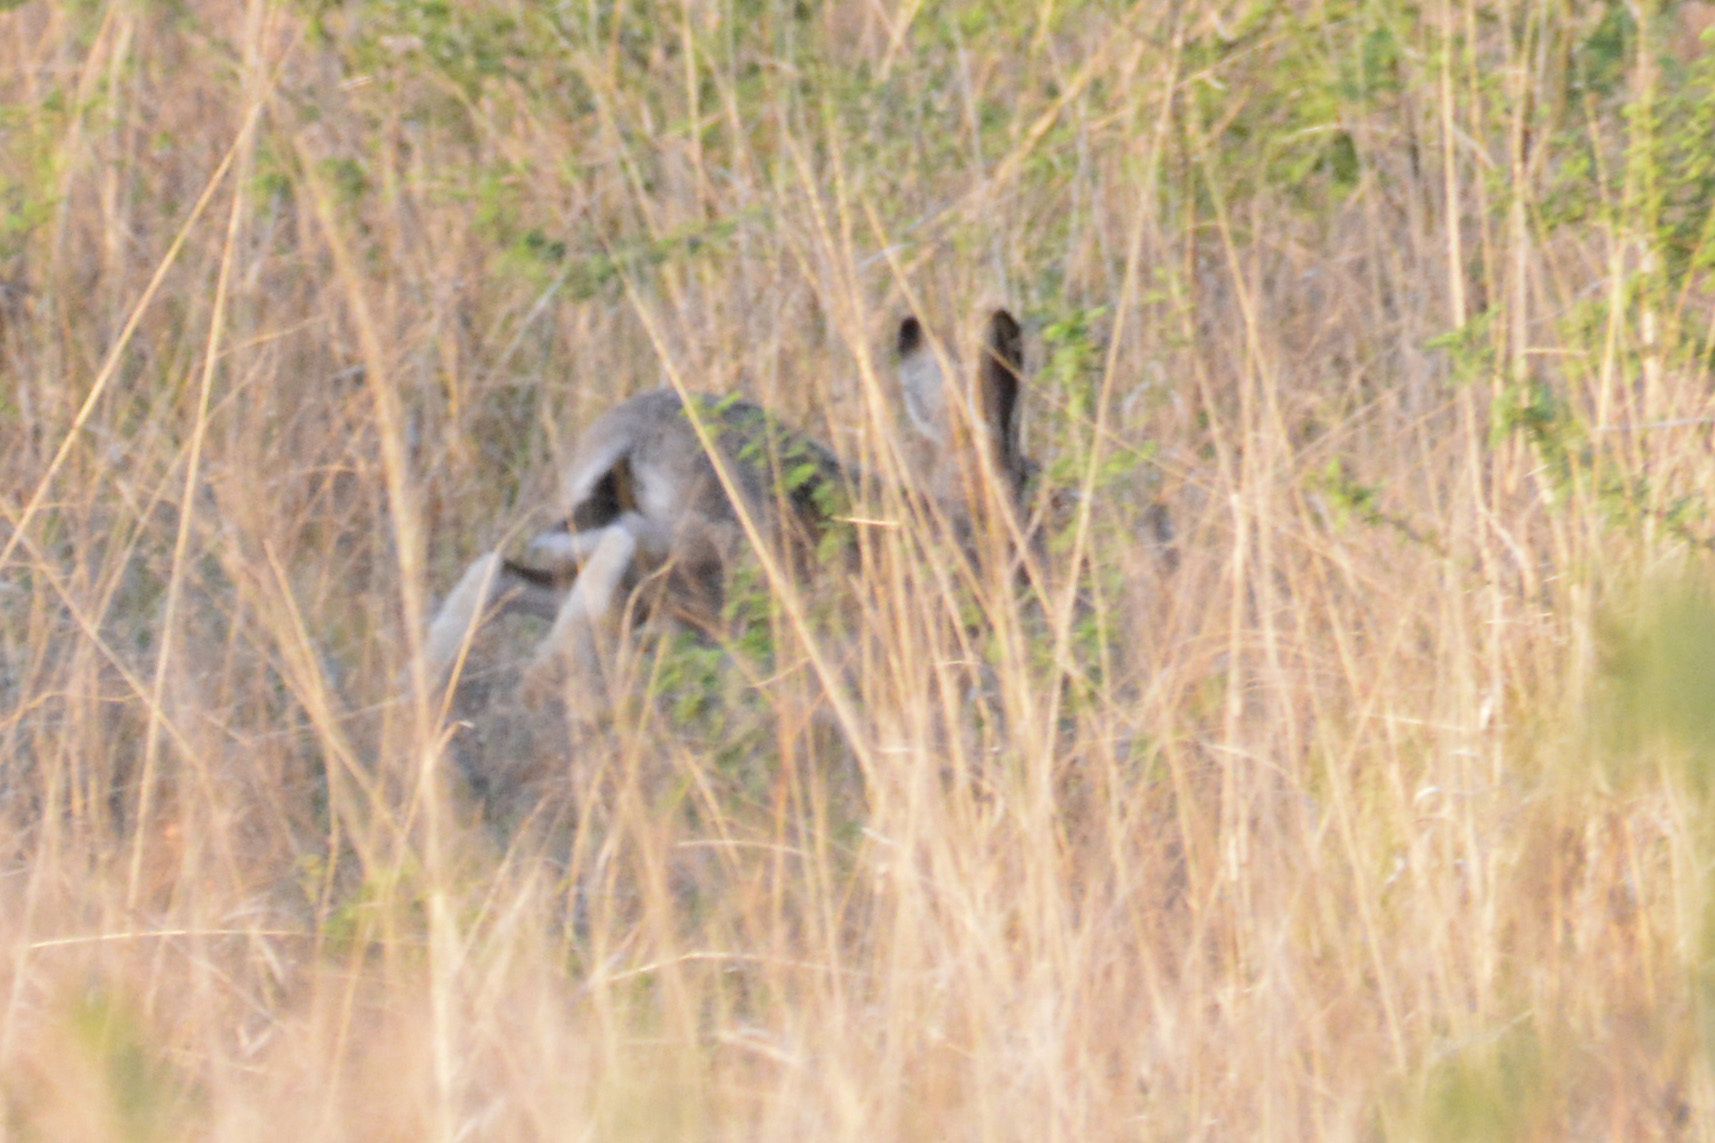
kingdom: Animalia
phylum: Chordata
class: Mammalia
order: Lagomorpha
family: Leporidae
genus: Lepus
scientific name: Lepus europaeus
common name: European hare
